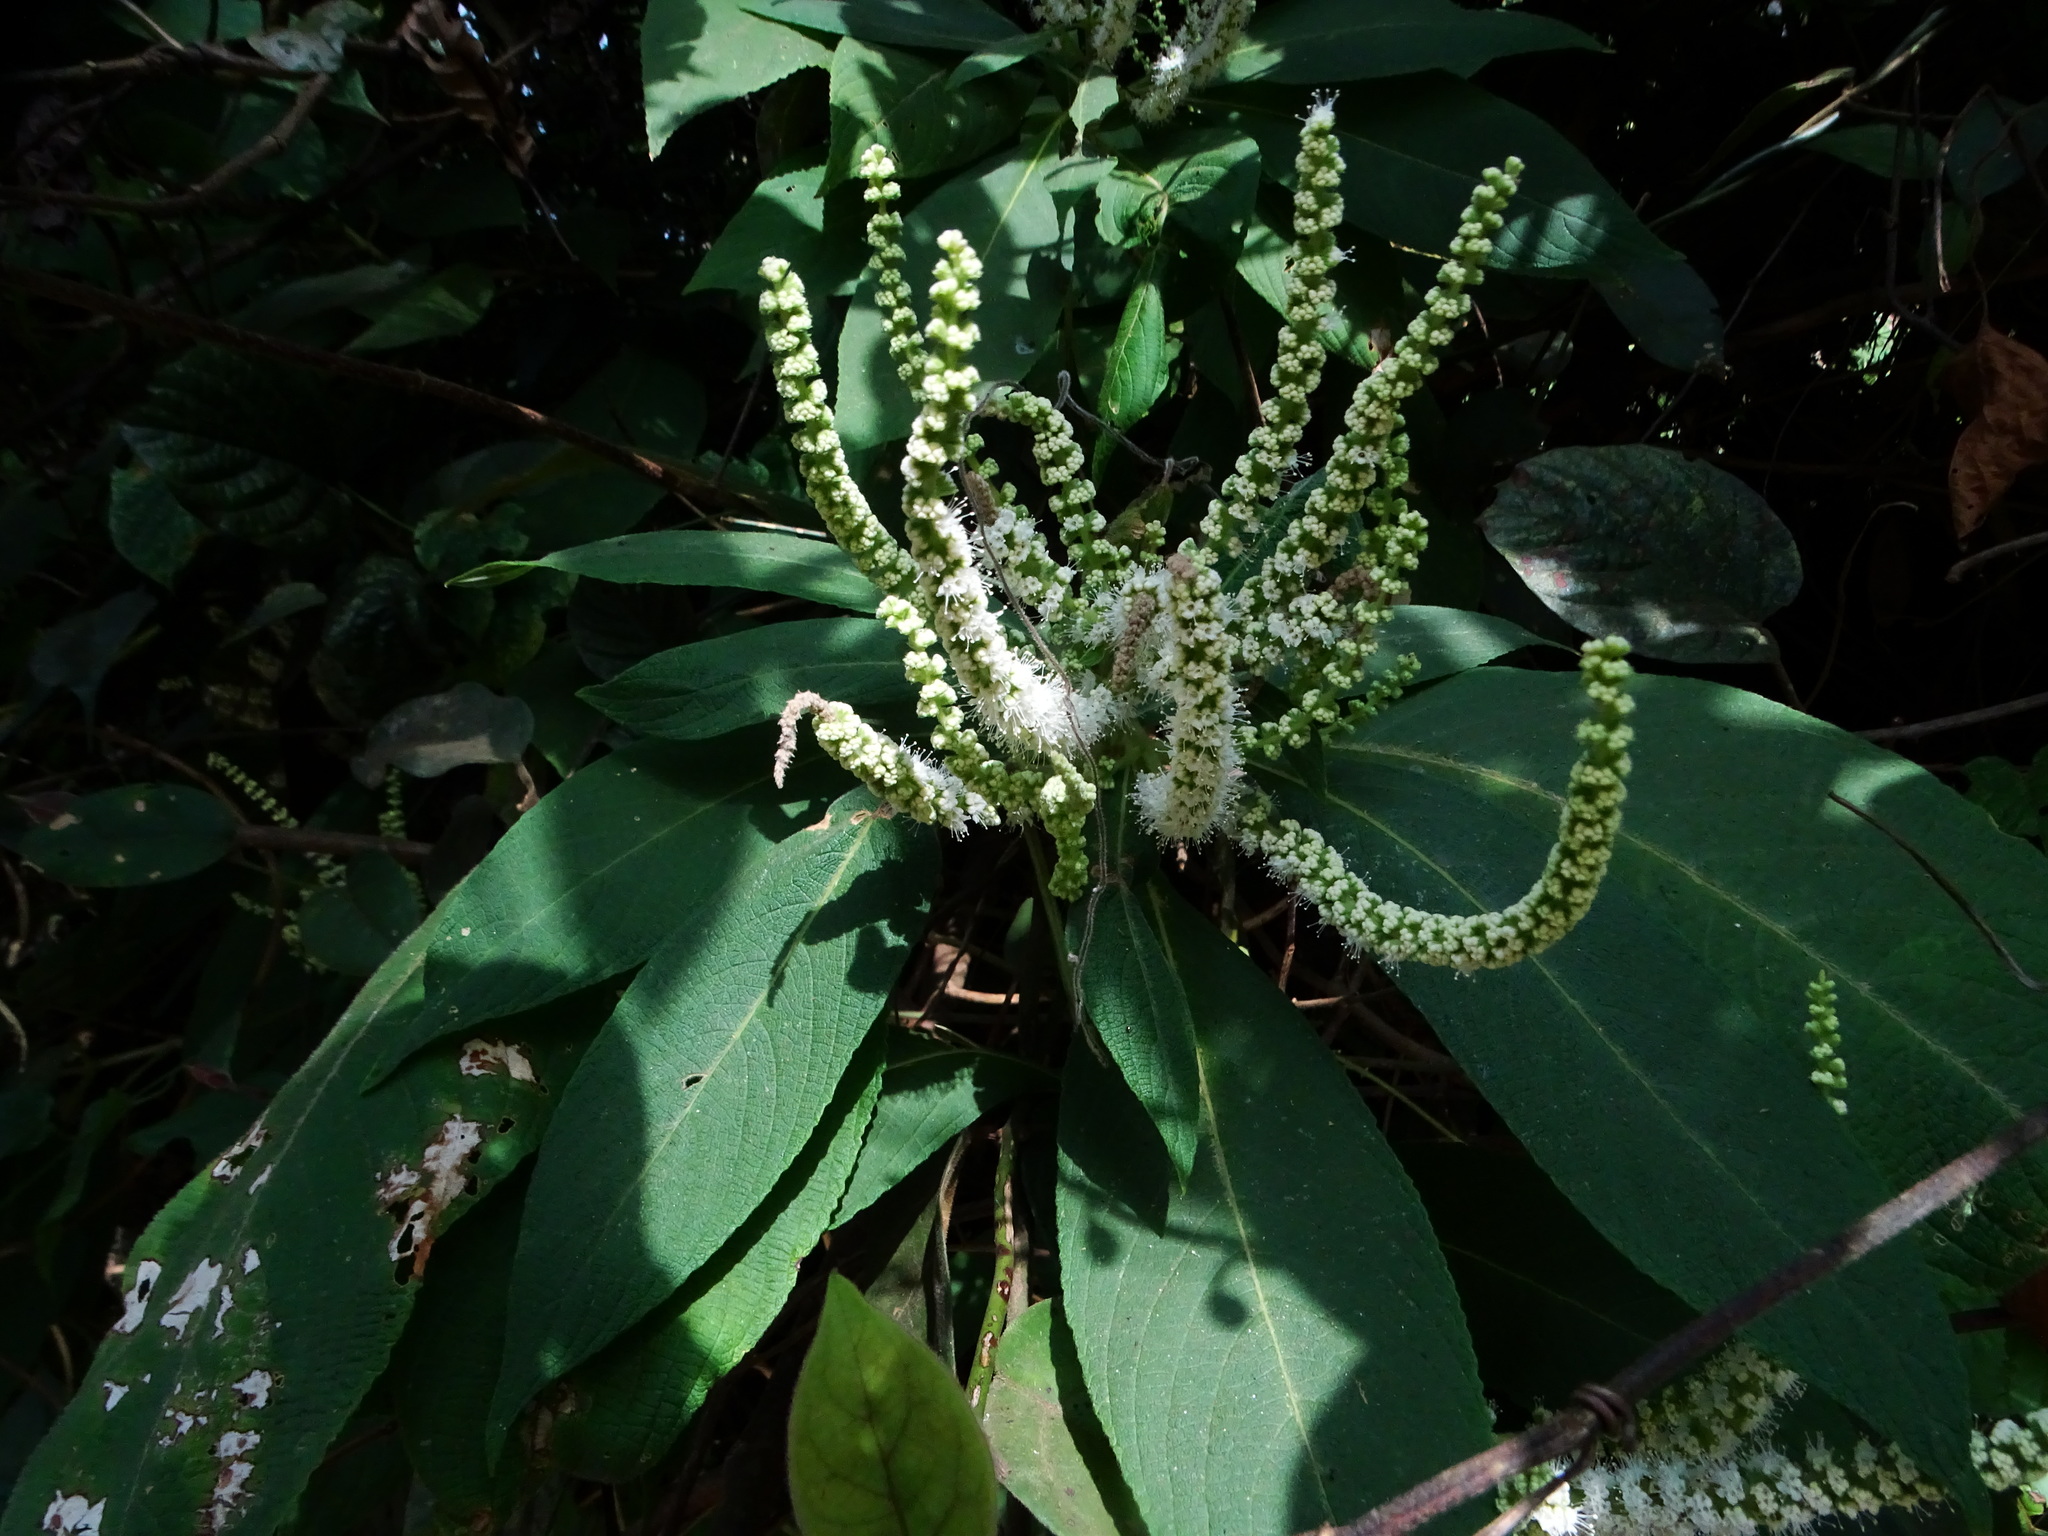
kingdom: Plantae
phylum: Tracheophyta
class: Magnoliopsida
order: Lamiales
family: Lamiaceae
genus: Colebrookea
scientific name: Colebrookea oppositifolia
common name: Indian squirrel tail
